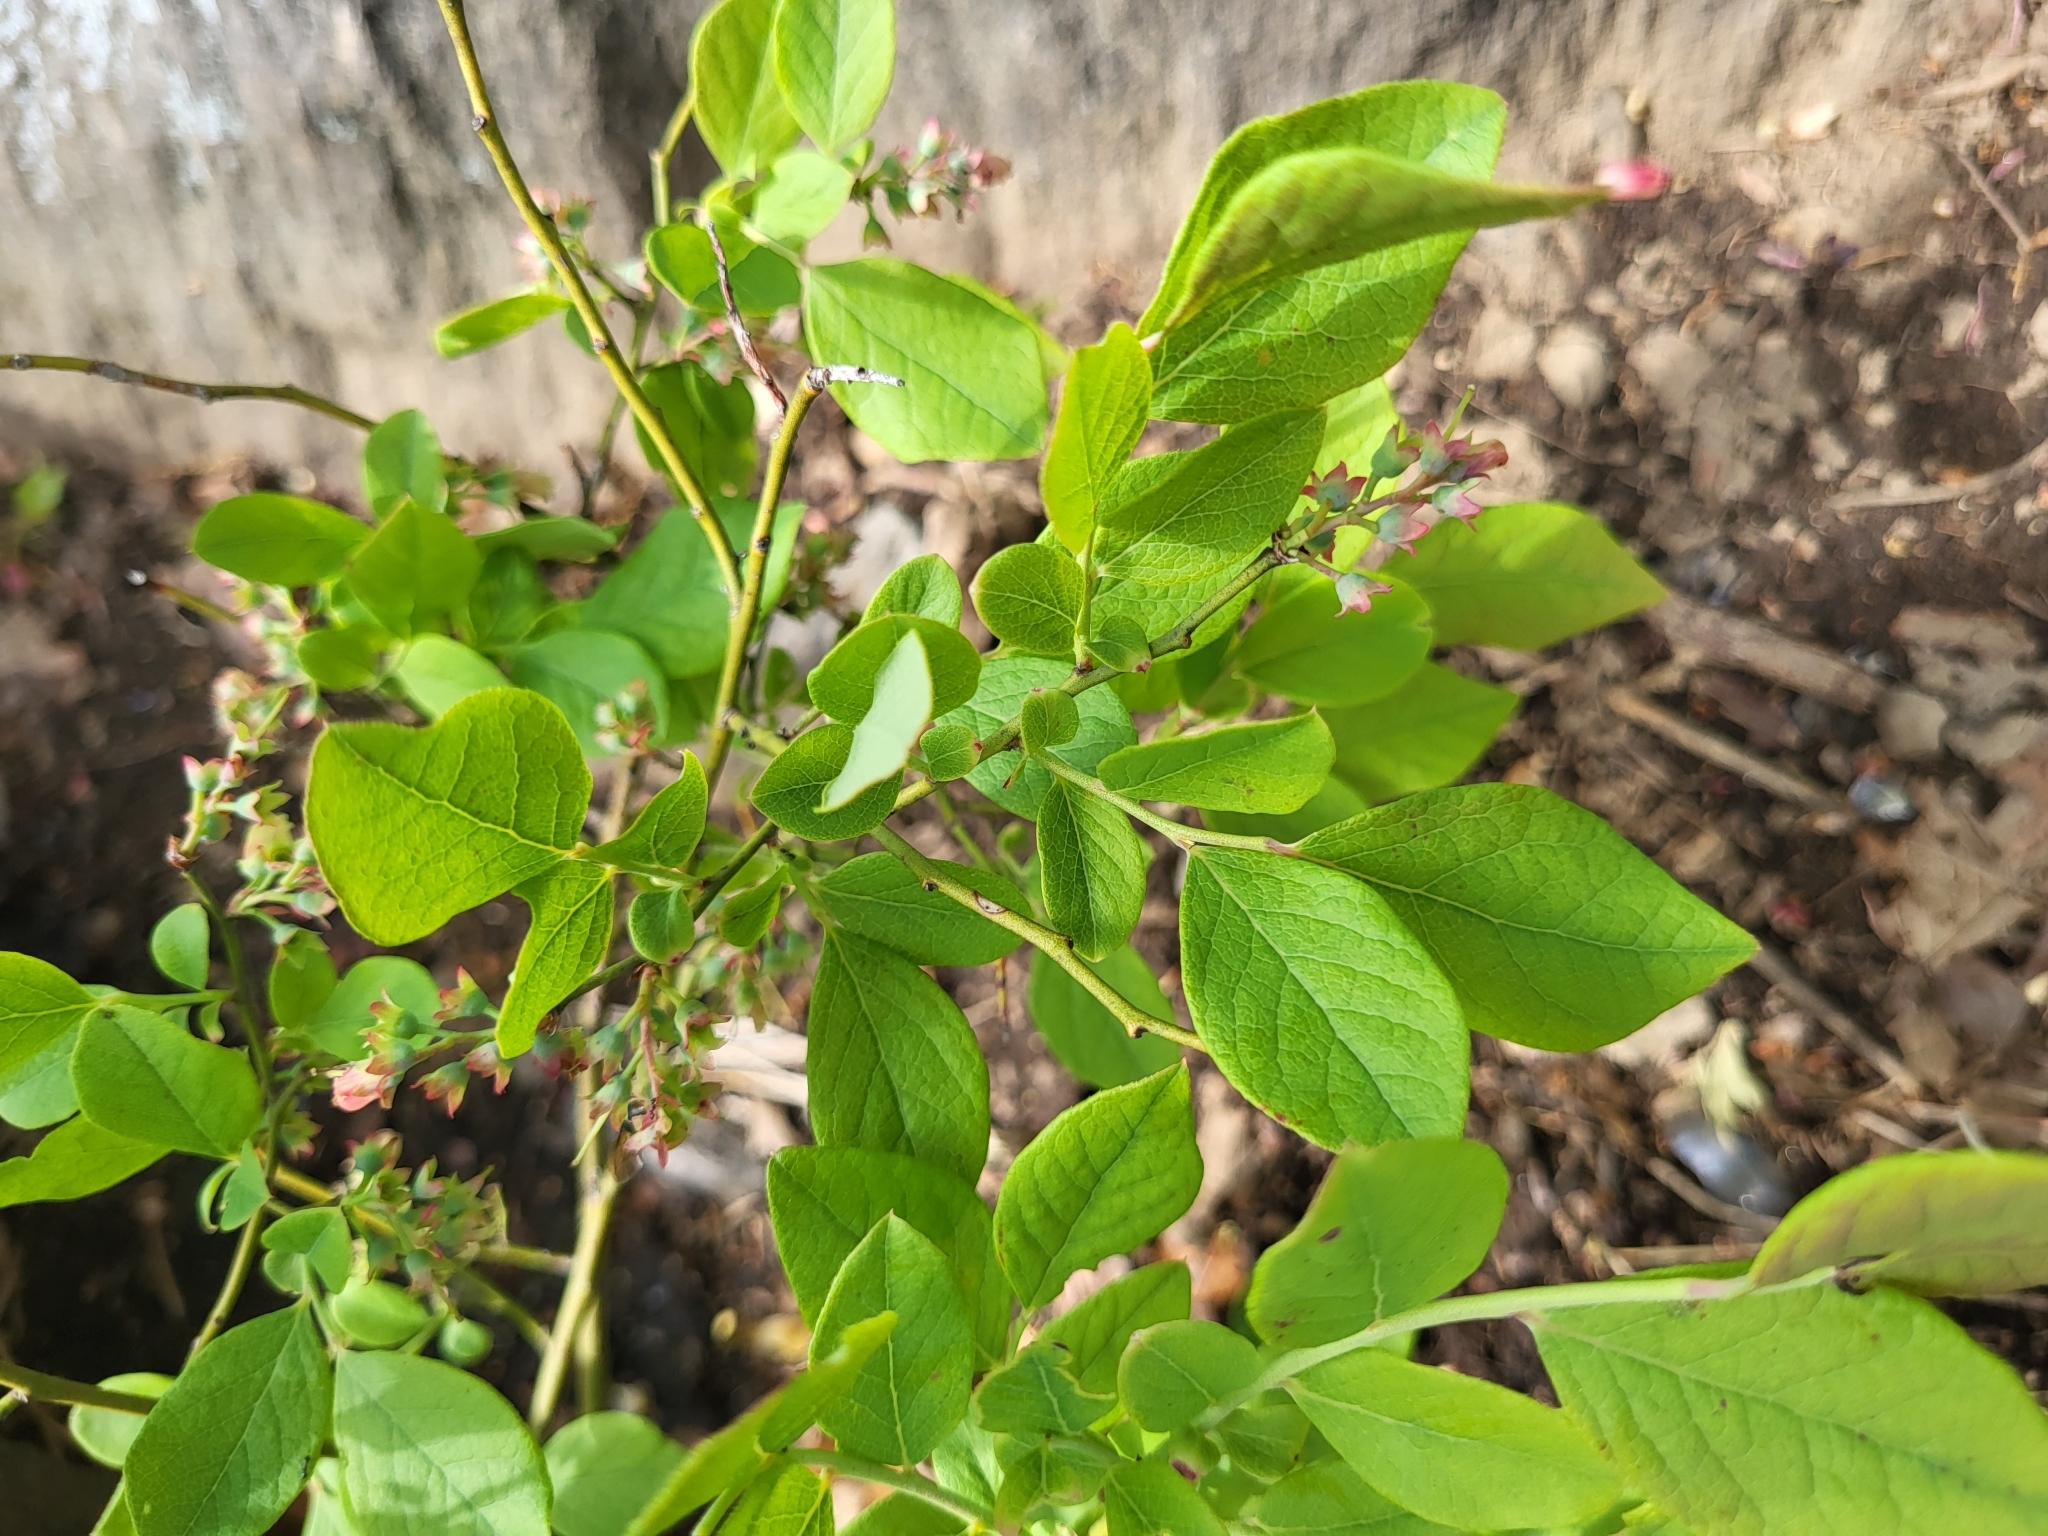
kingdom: Plantae
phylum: Tracheophyta
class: Magnoliopsida
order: Ericales
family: Ericaceae
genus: Vaccinium
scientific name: Vaccinium pallidum
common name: Blue ridge blueberry
